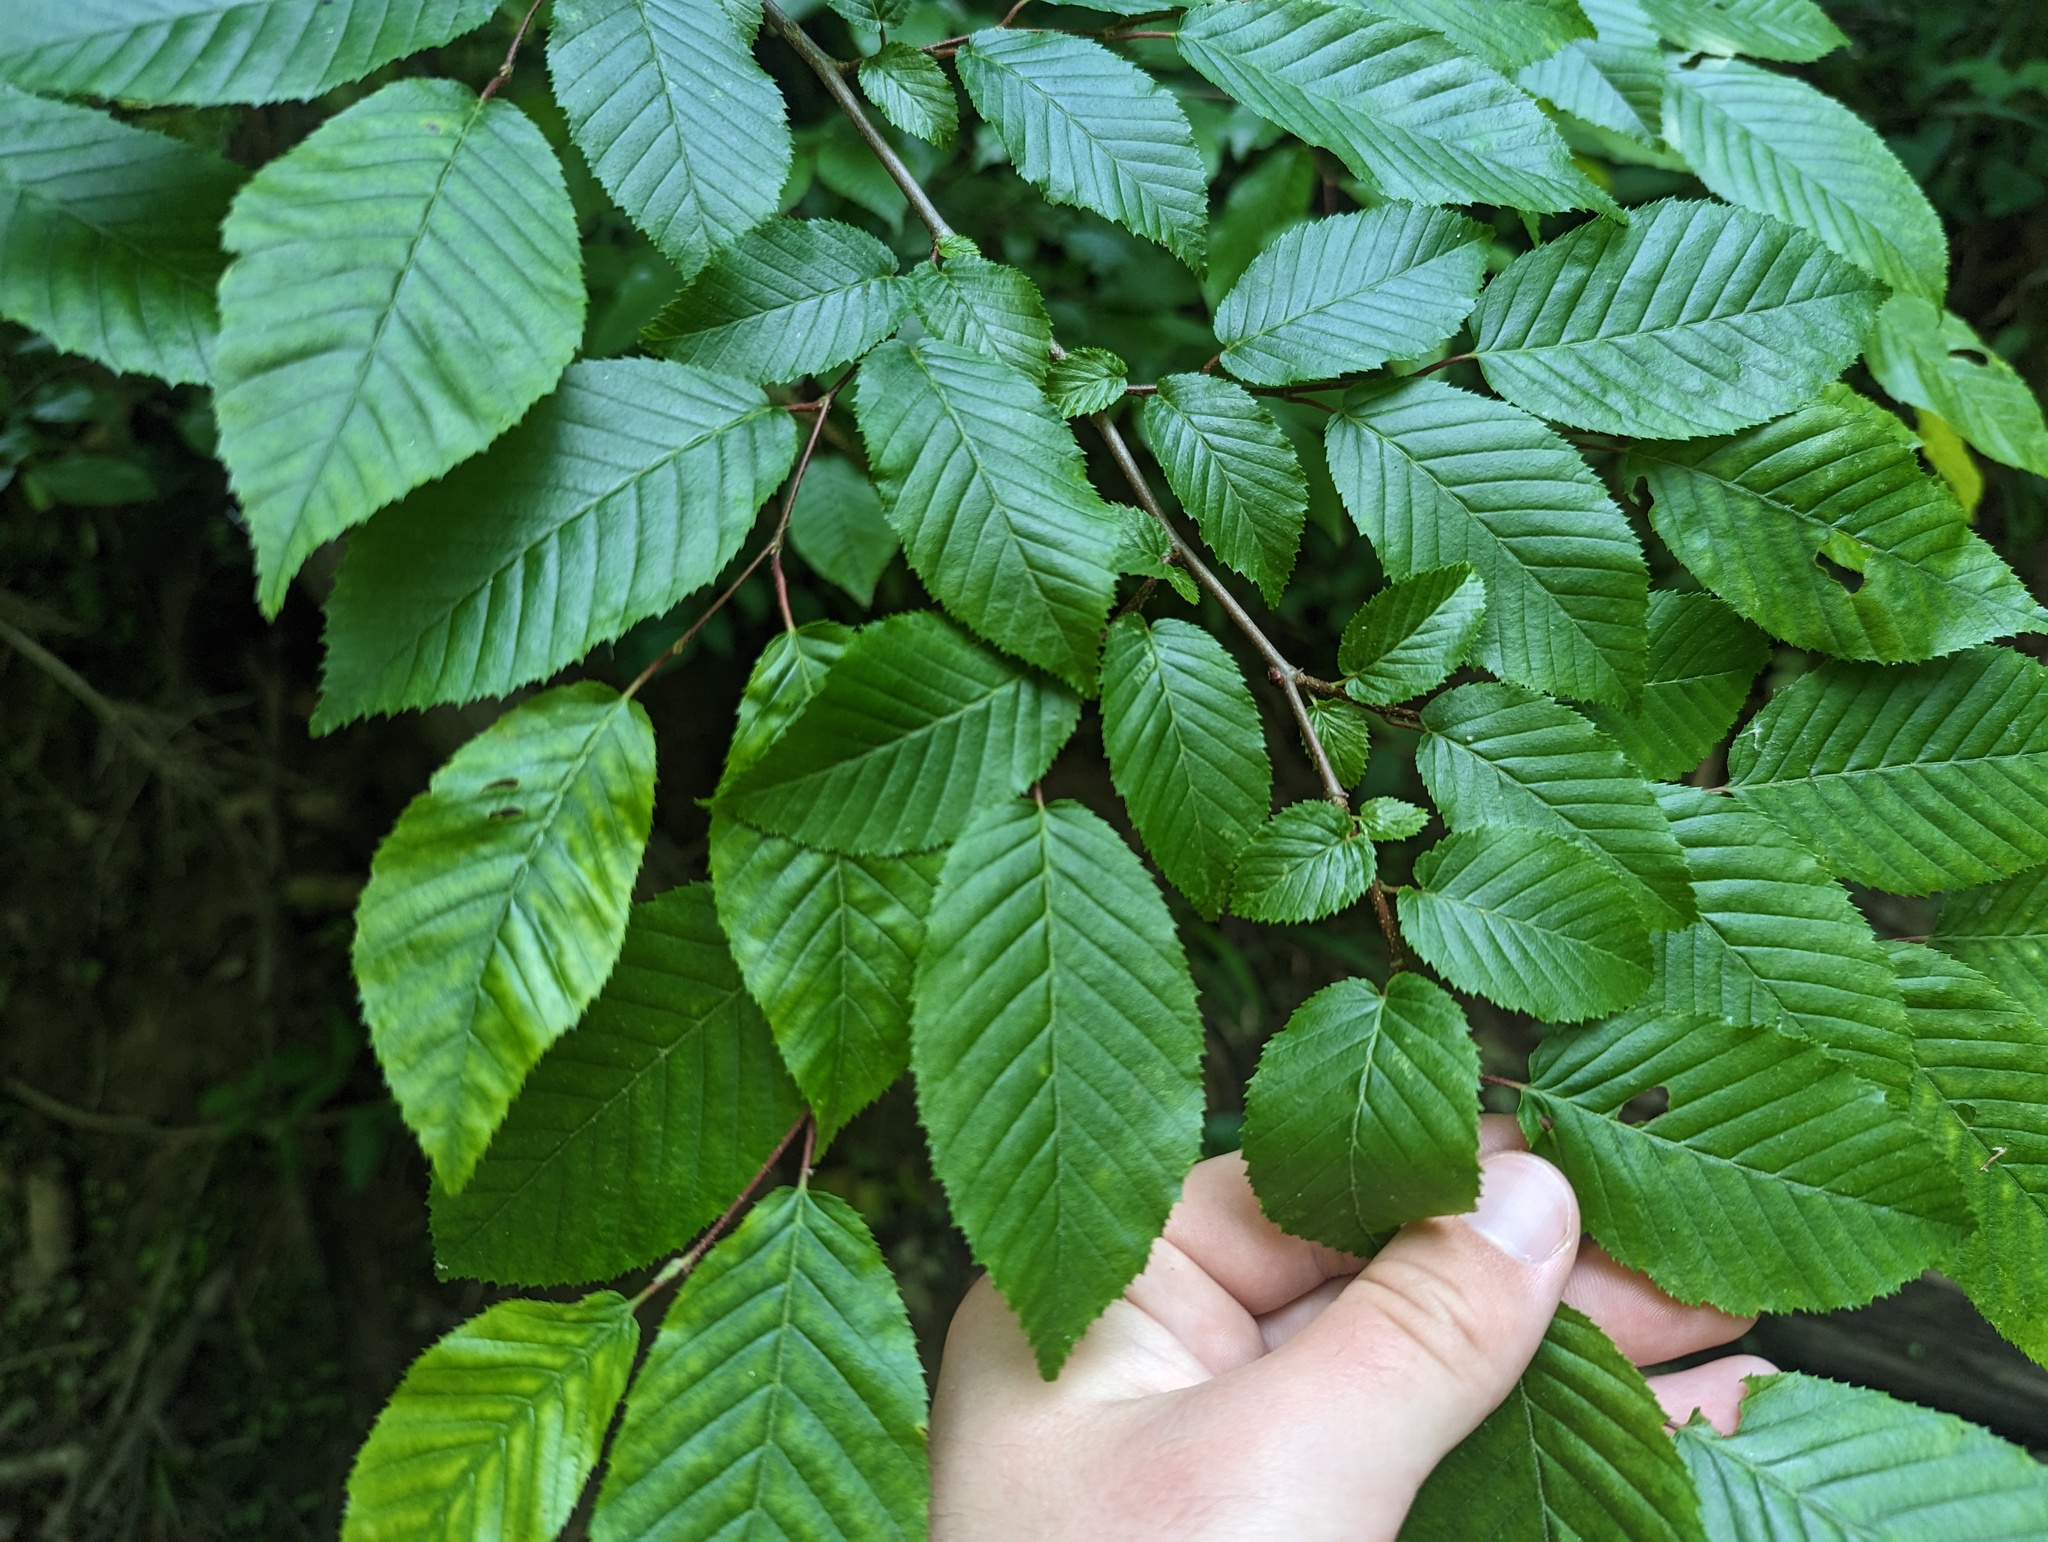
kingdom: Plantae
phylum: Tracheophyta
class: Magnoliopsida
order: Fagales
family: Betulaceae
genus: Carpinus
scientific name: Carpinus caroliniana
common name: American hornbeam
